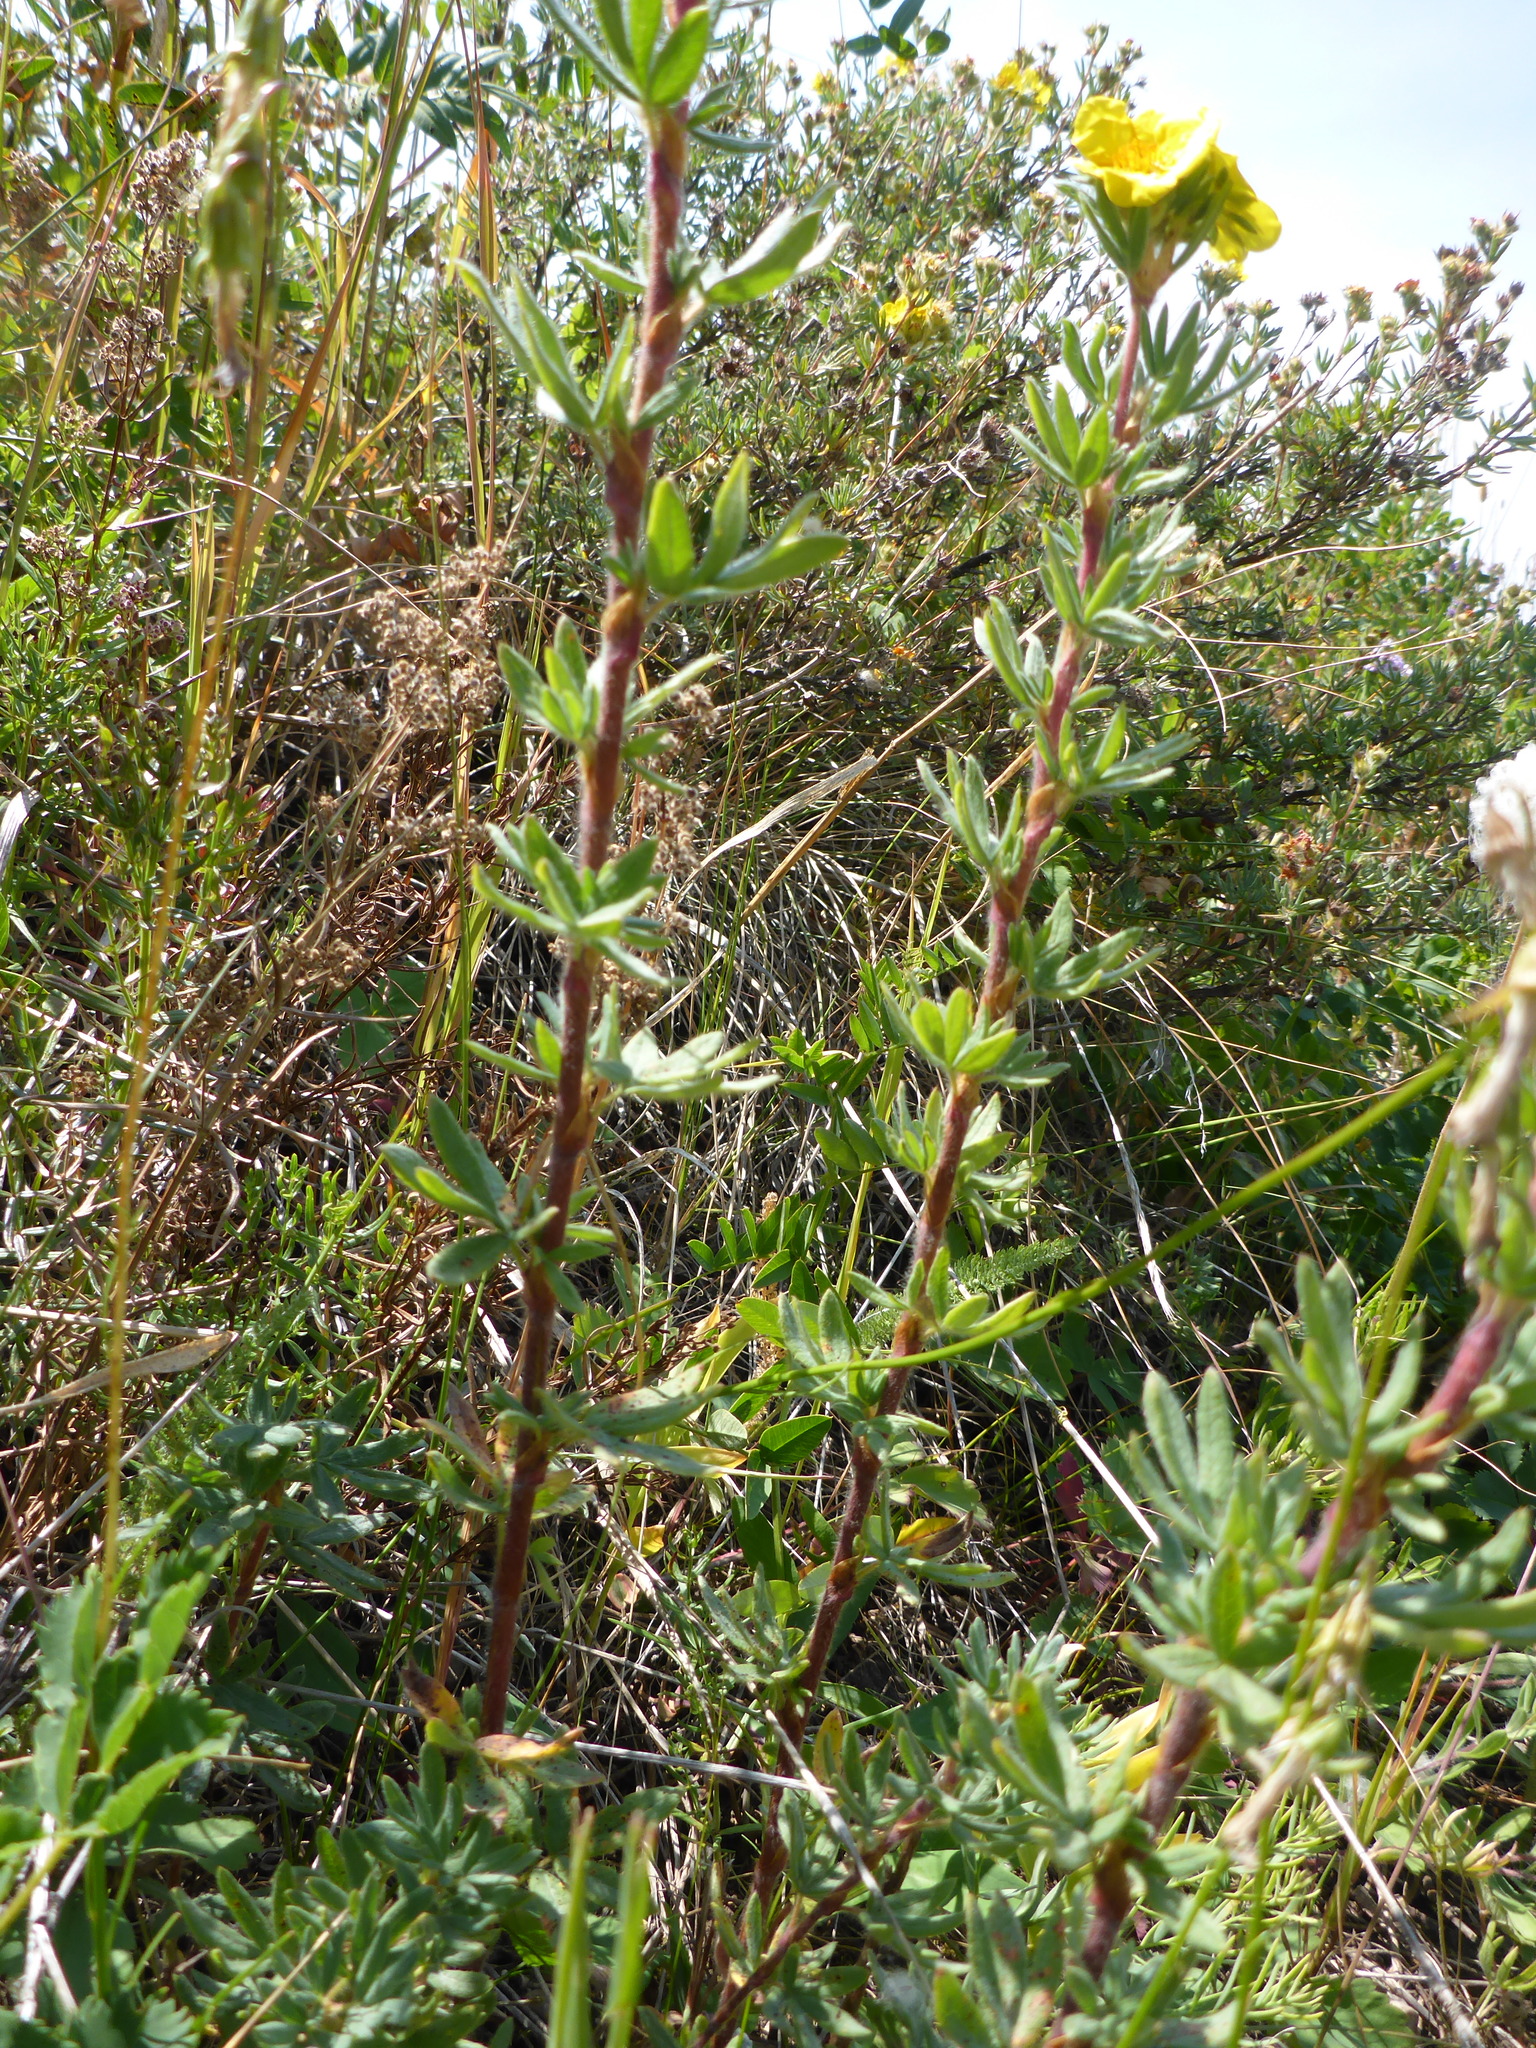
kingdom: Plantae
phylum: Tracheophyta
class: Magnoliopsida
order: Rosales
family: Rosaceae
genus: Dasiphora
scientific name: Dasiphora fruticosa
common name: Shrubby cinquefoil
